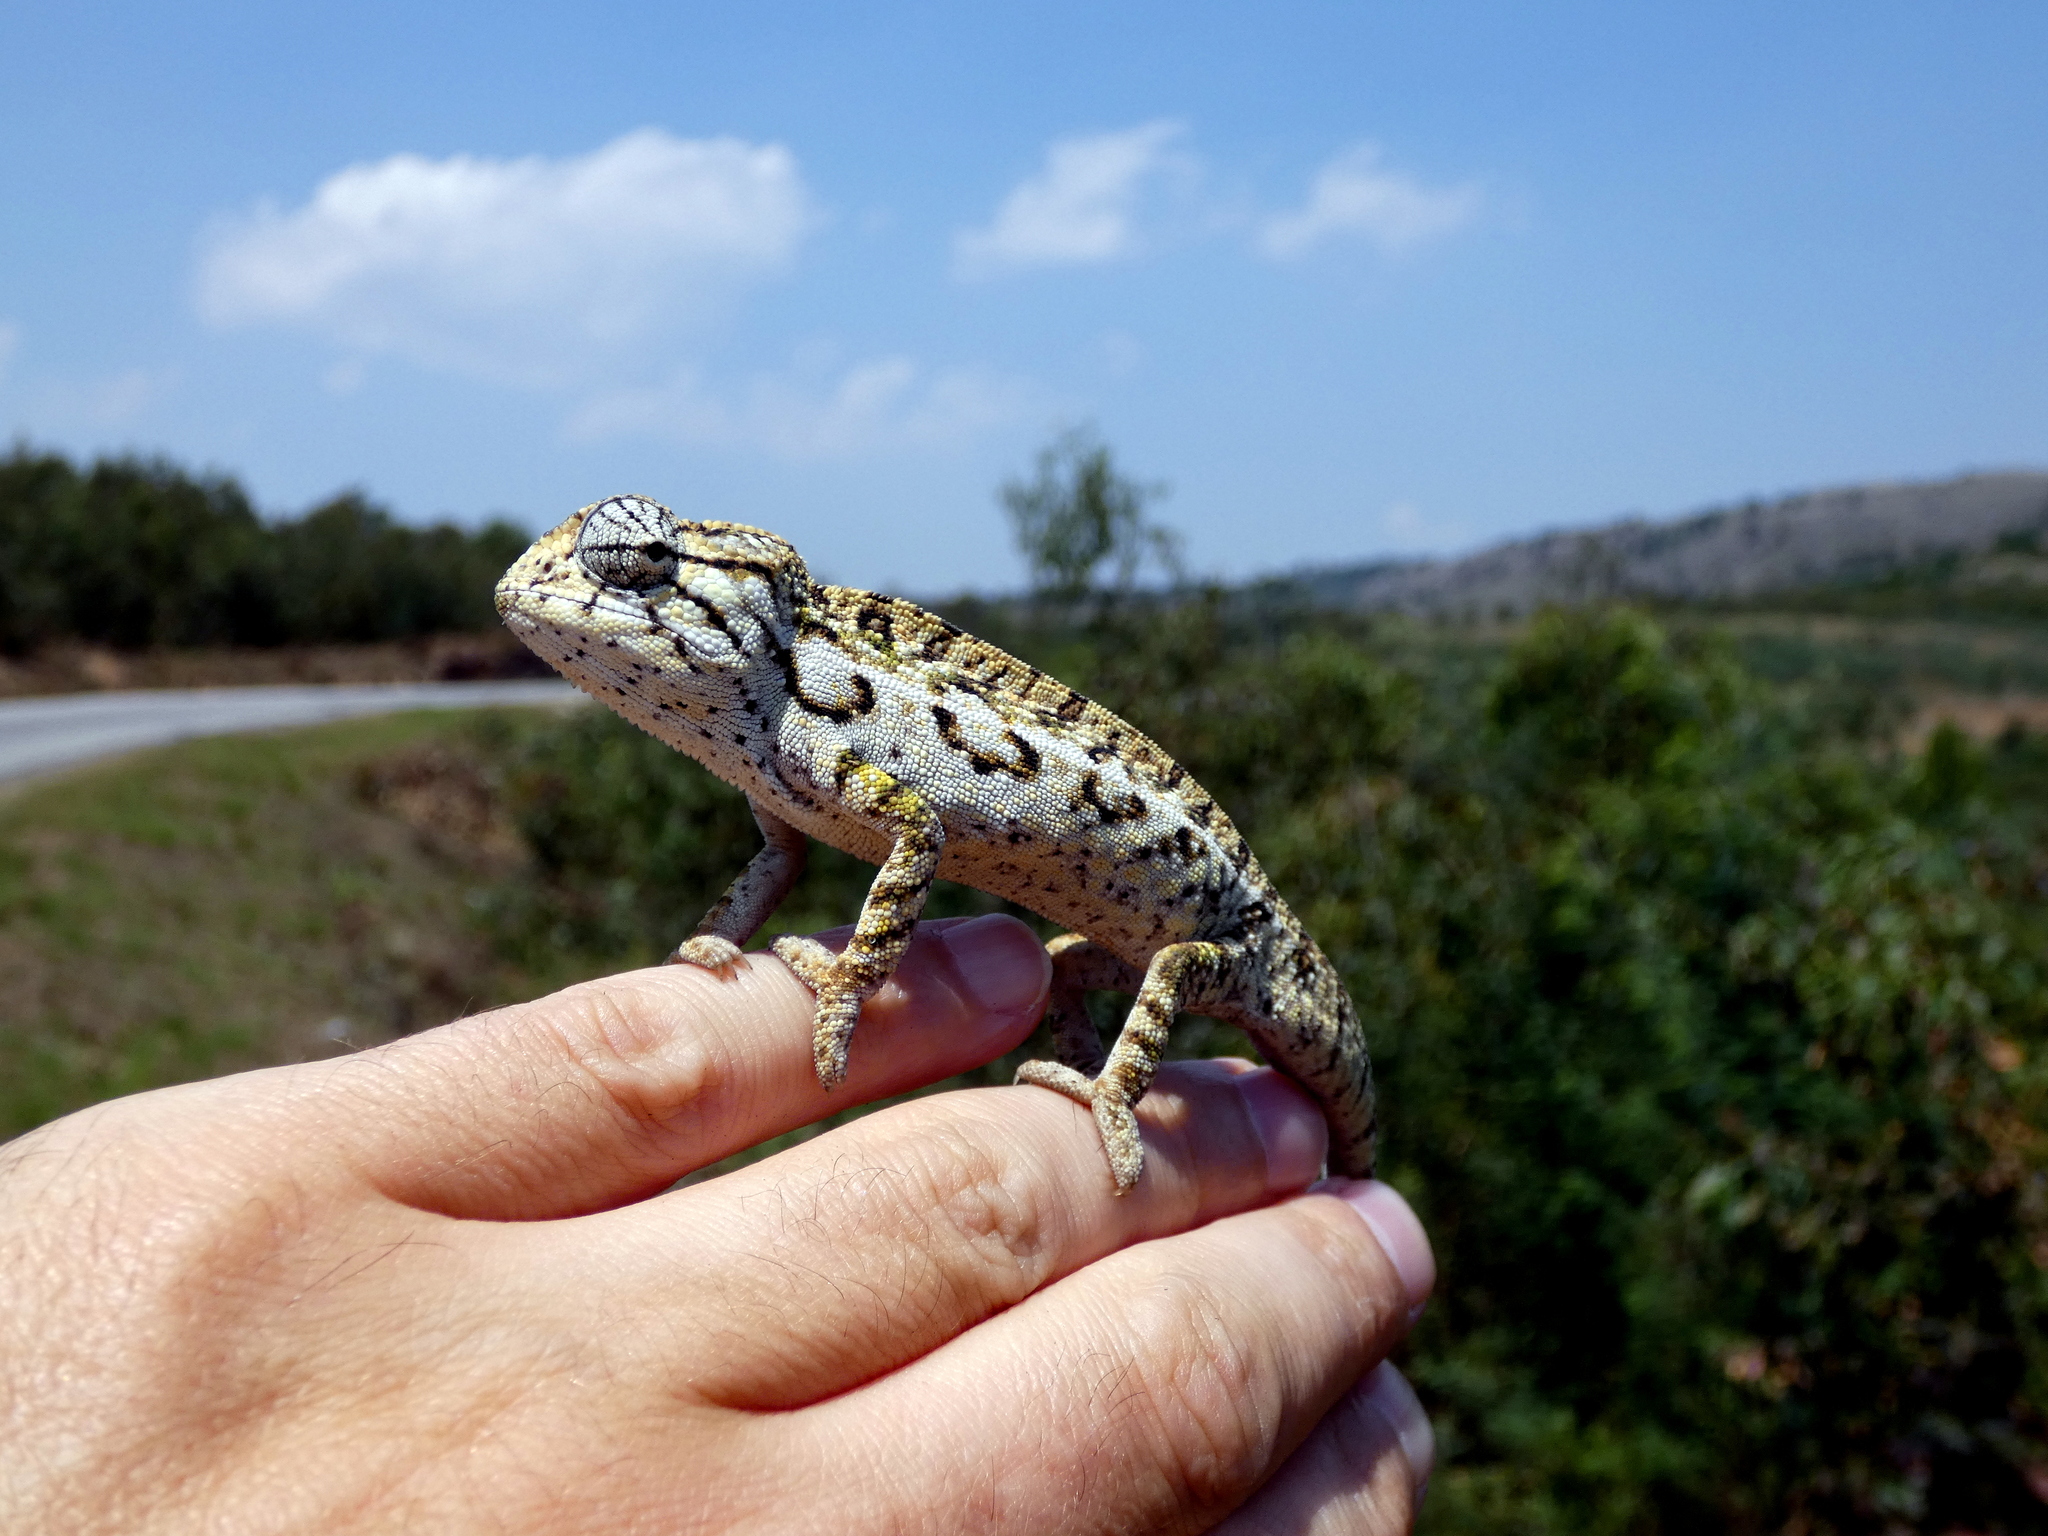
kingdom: Animalia
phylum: Chordata
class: Squamata
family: Chamaeleonidae
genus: Furcifer
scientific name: Furcifer lateralis
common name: Carpet chameleon
